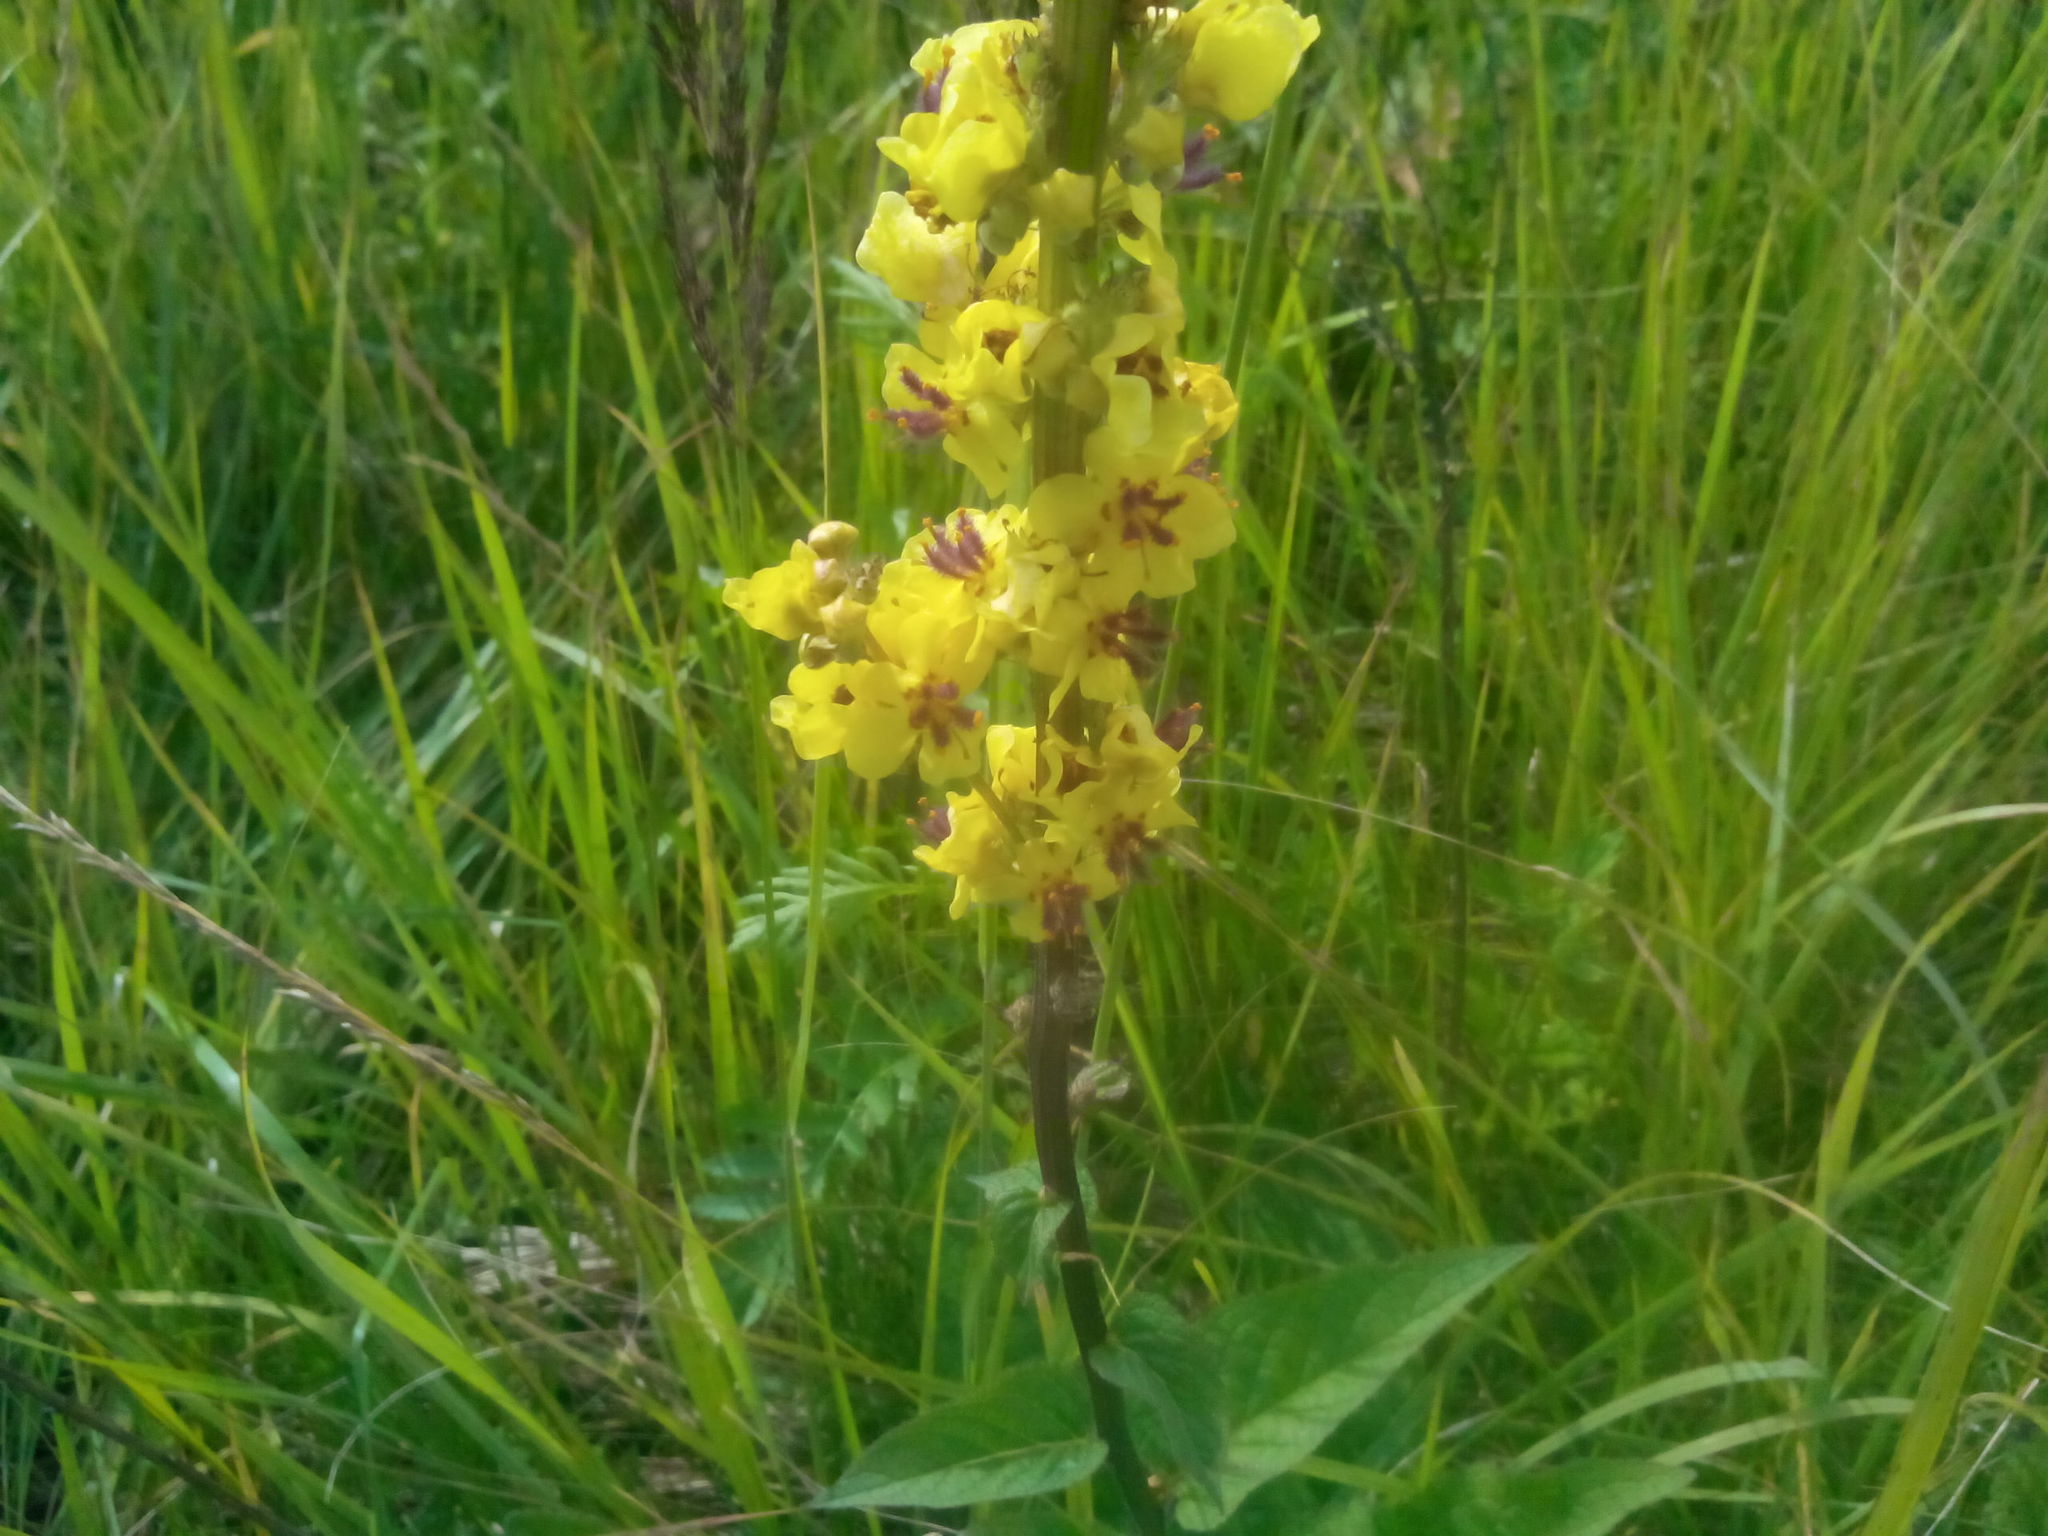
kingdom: Plantae
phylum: Tracheophyta
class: Magnoliopsida
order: Lamiales
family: Scrophulariaceae
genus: Verbascum
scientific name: Verbascum nigrum
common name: Dark mullein
